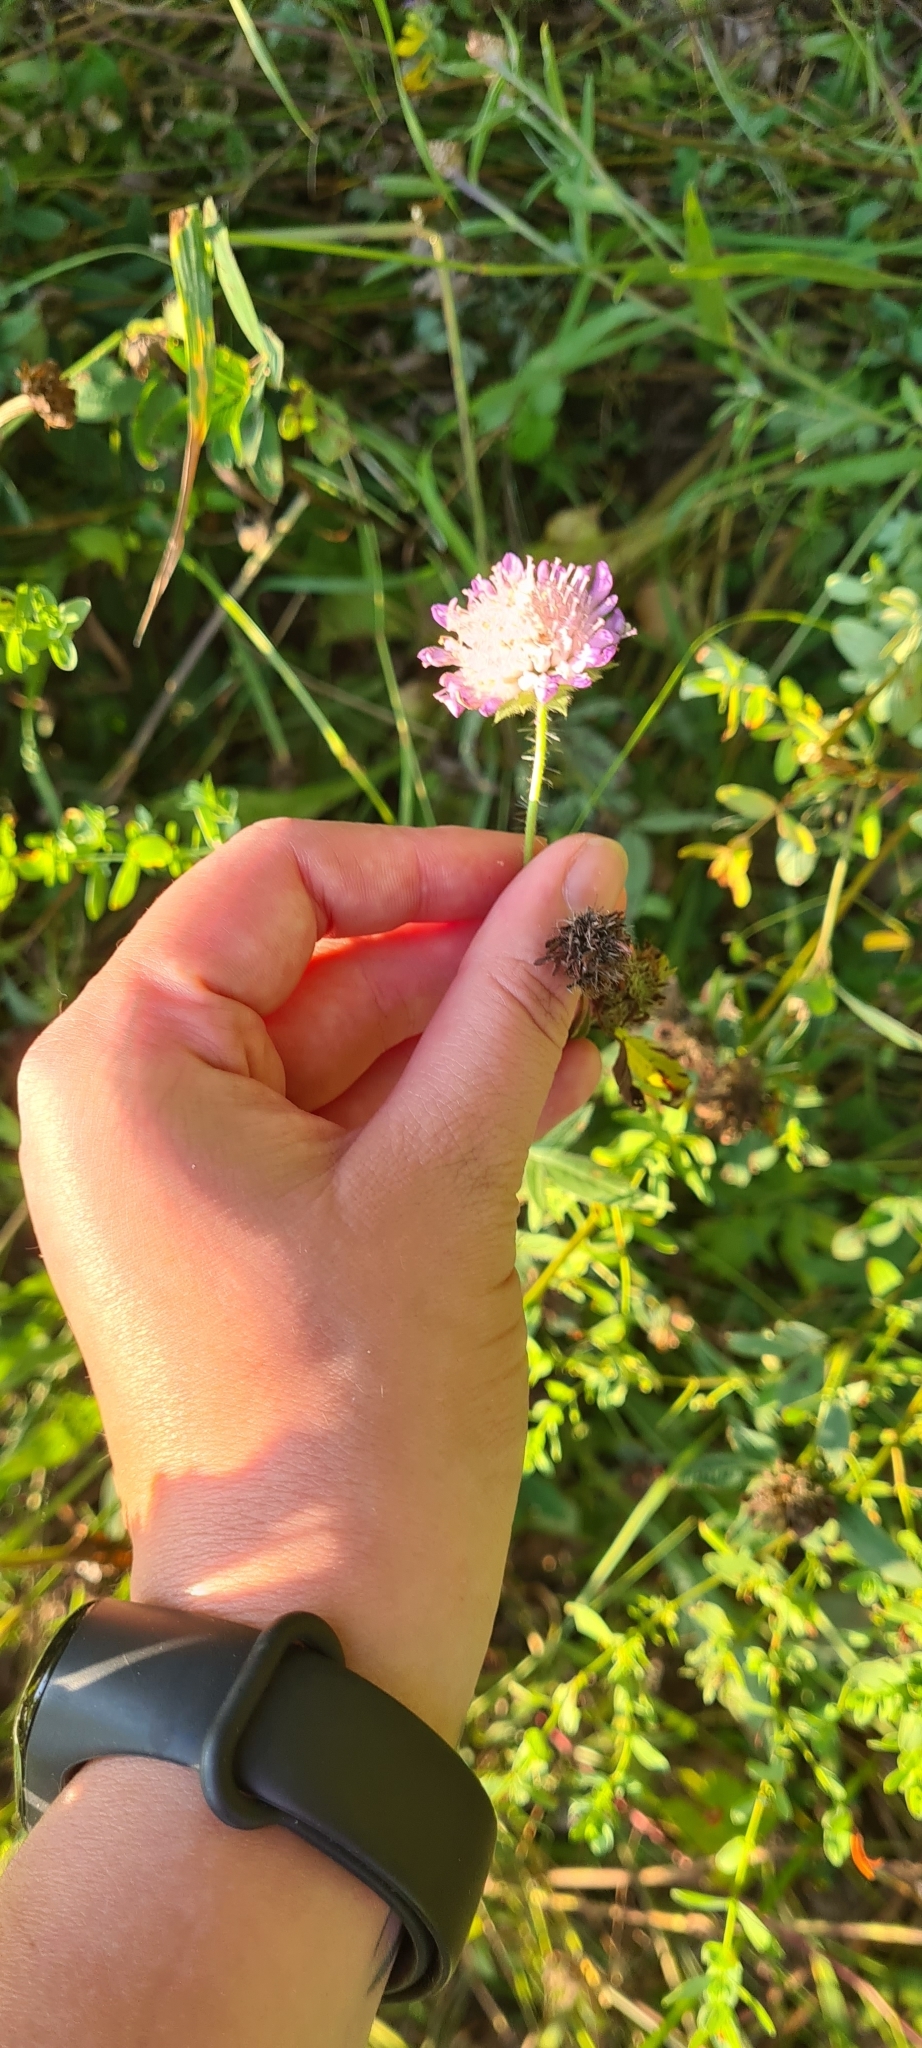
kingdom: Plantae
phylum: Tracheophyta
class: Magnoliopsida
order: Dipsacales
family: Caprifoliaceae
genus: Knautia
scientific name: Knautia arvensis
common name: Field scabiosa
